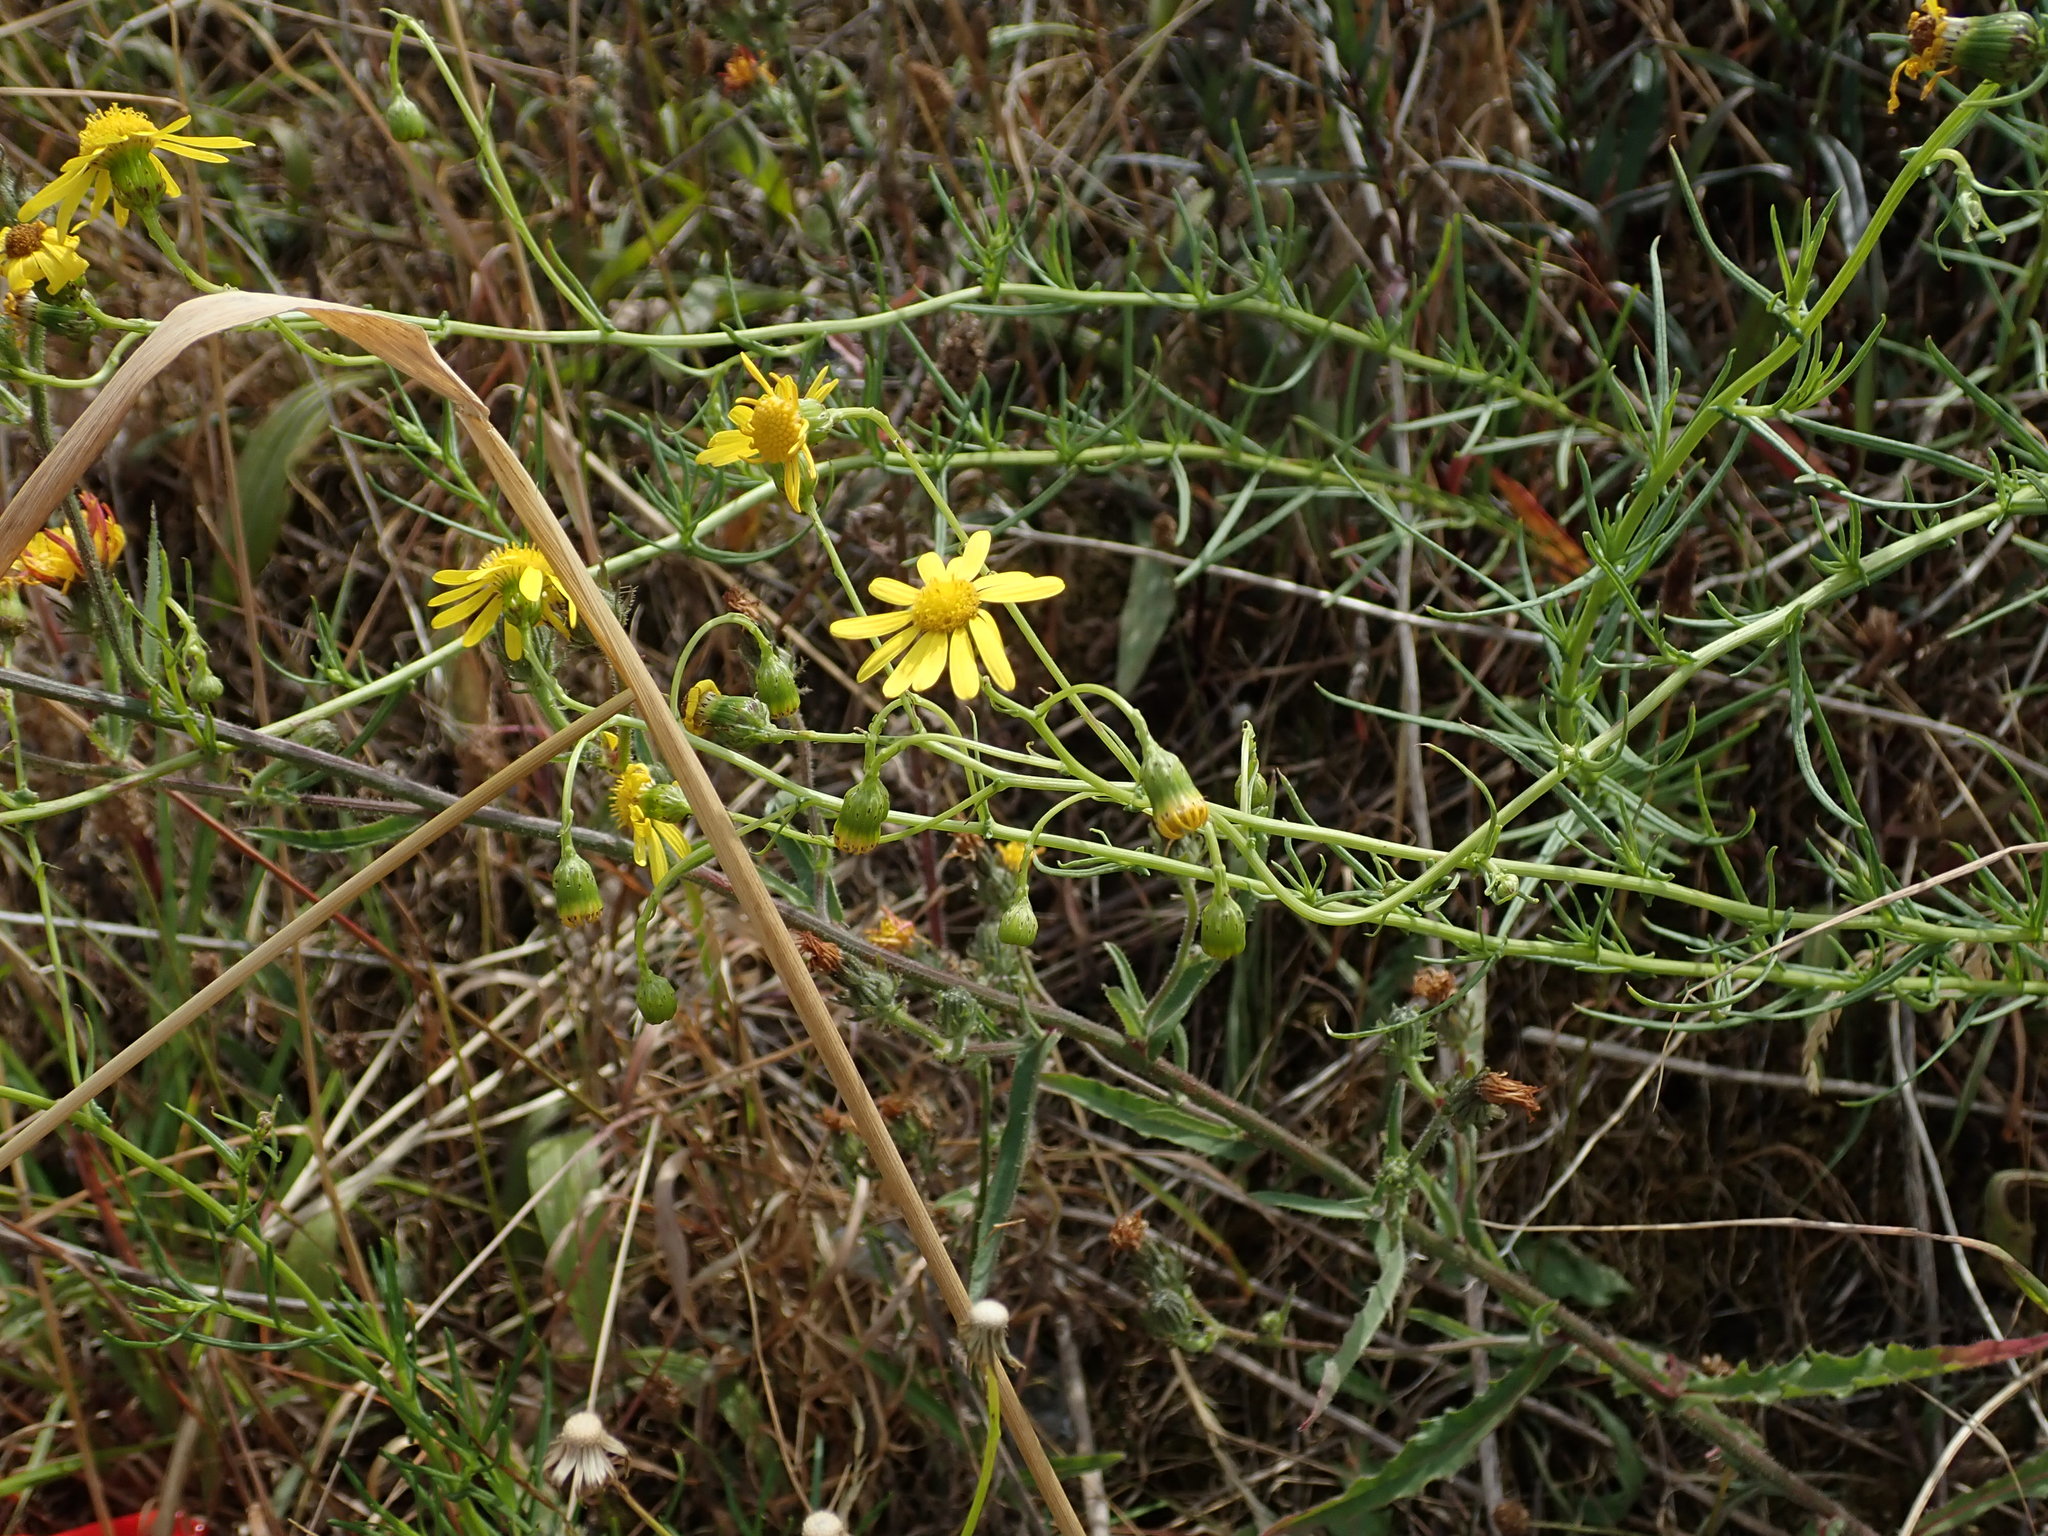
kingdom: Plantae
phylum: Tracheophyta
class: Magnoliopsida
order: Asterales
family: Asteraceae
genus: Senecio
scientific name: Senecio inaequidens
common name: Narrow-leaved ragwort
